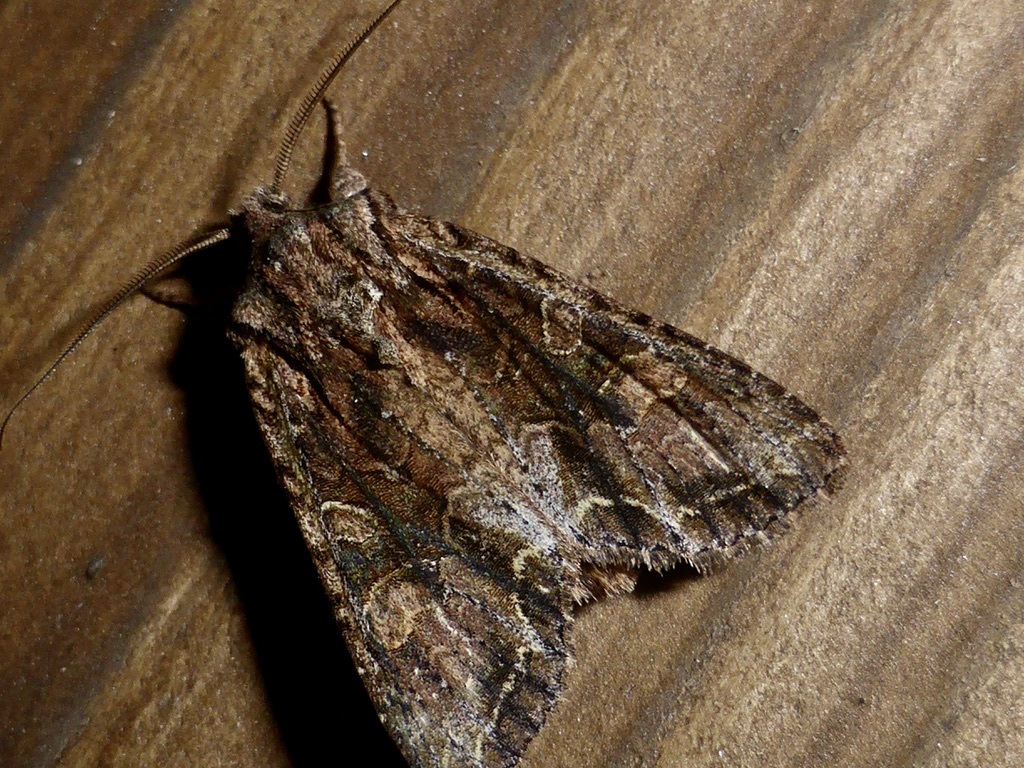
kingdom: Animalia
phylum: Arthropoda
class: Insecta
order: Lepidoptera
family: Noctuidae
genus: Ichneutica
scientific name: Ichneutica mutans
